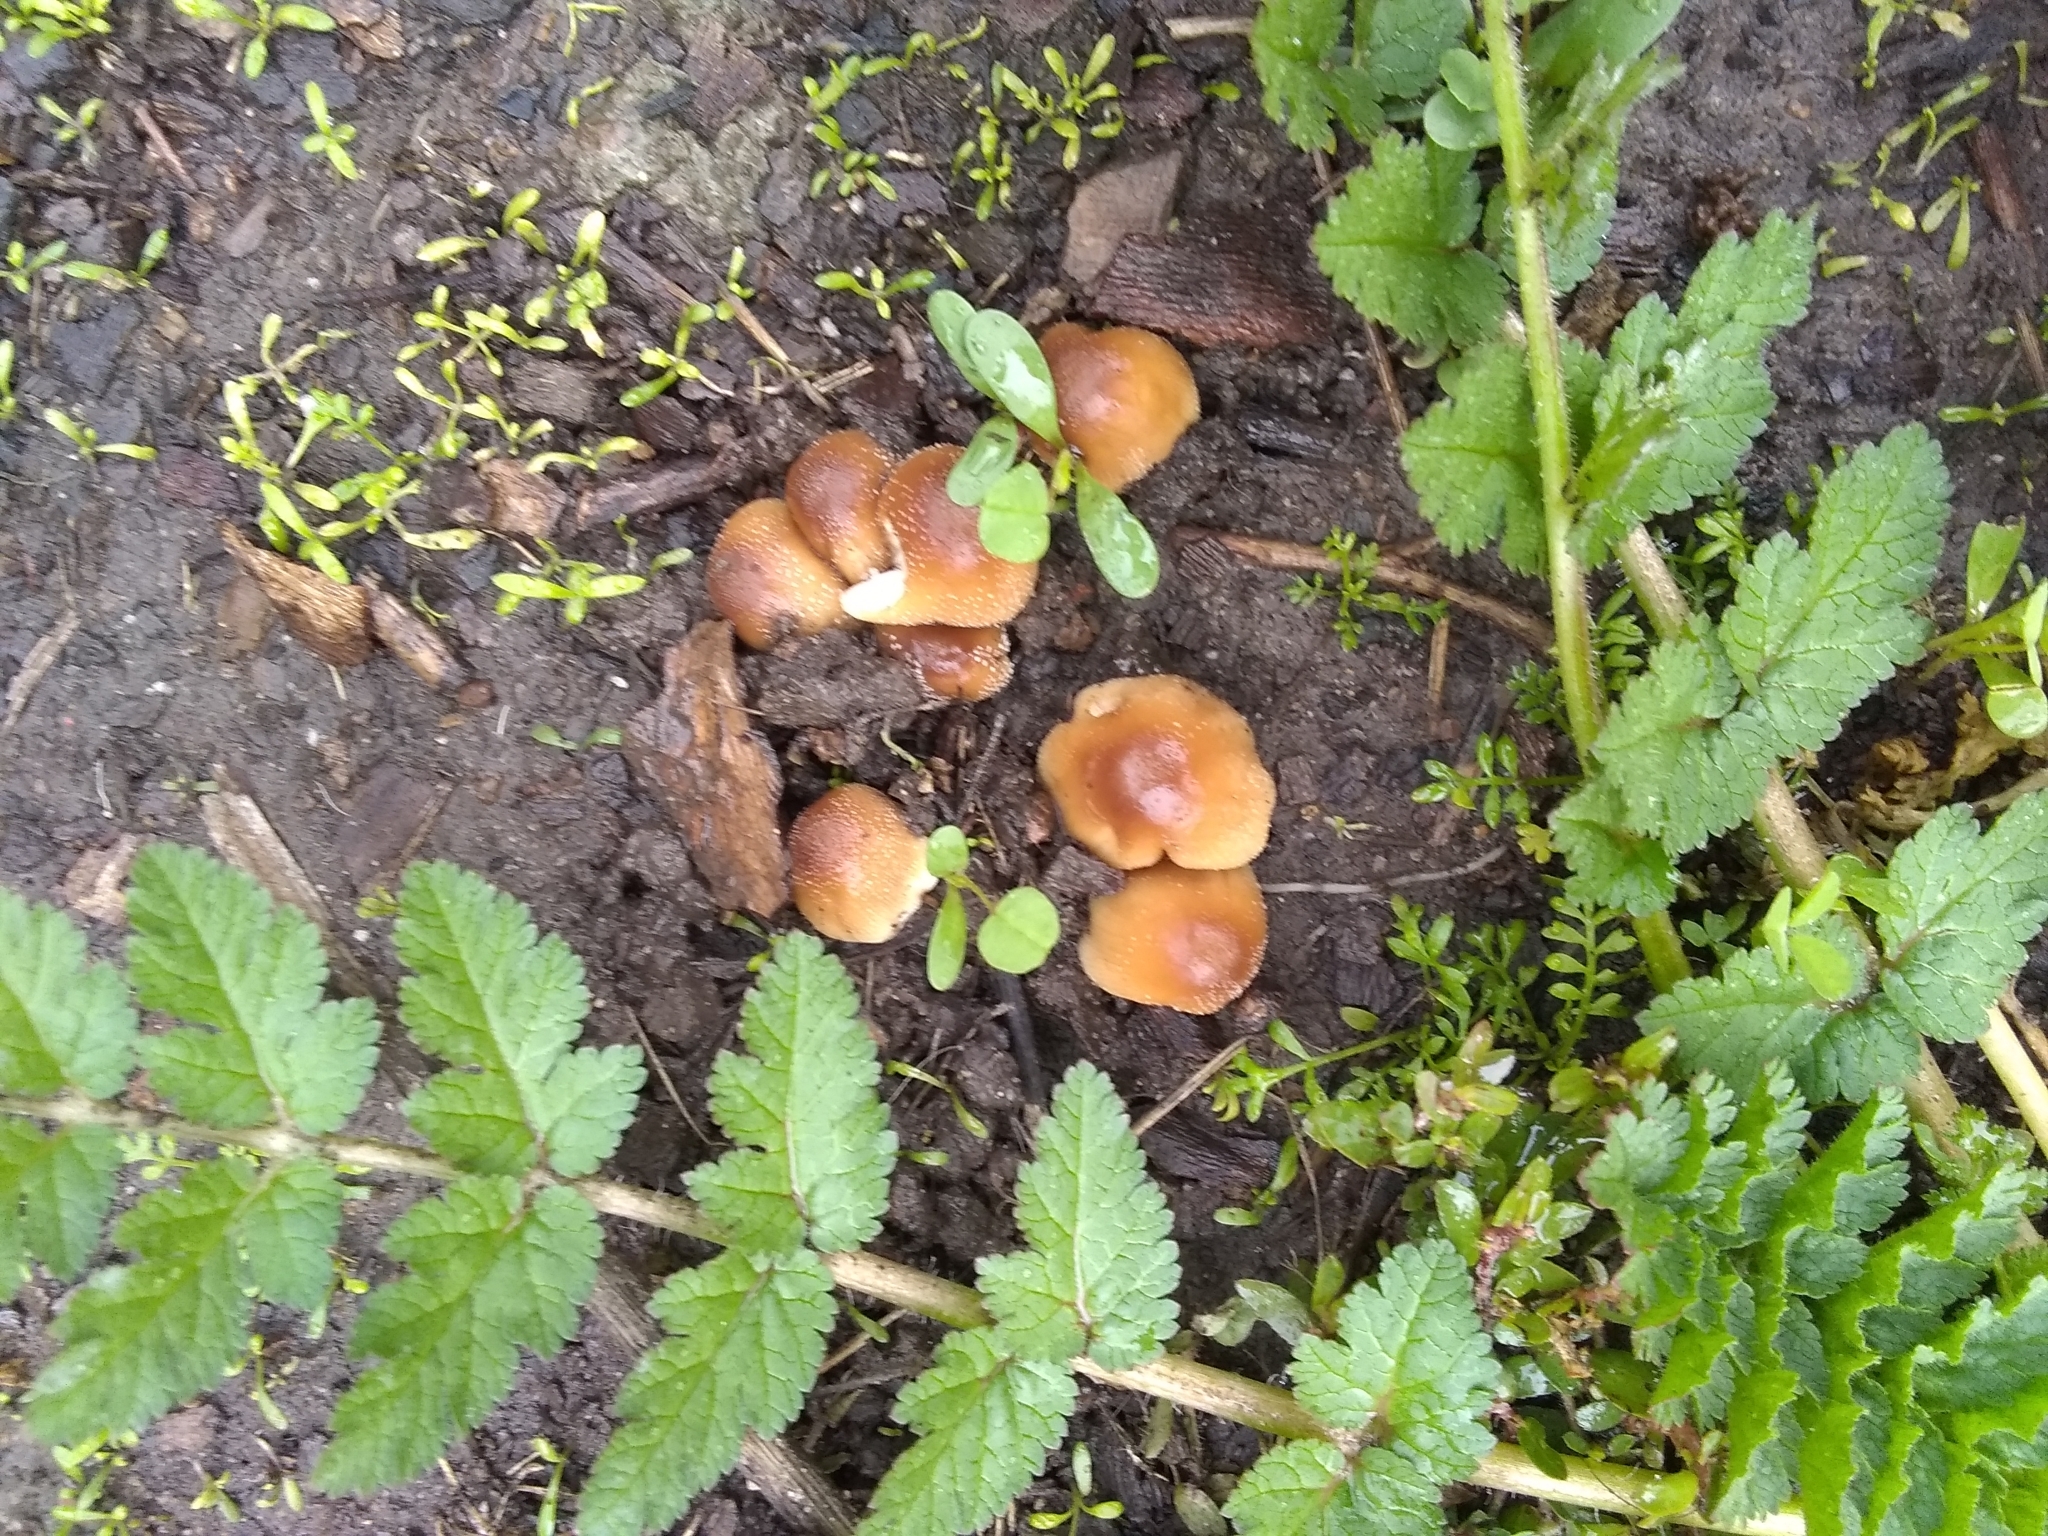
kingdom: Fungi
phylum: Basidiomycota
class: Agaricomycetes
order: Agaricales
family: Psathyrellaceae
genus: Coprinellus
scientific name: Coprinellus micaceus
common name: Glistening ink-cap
